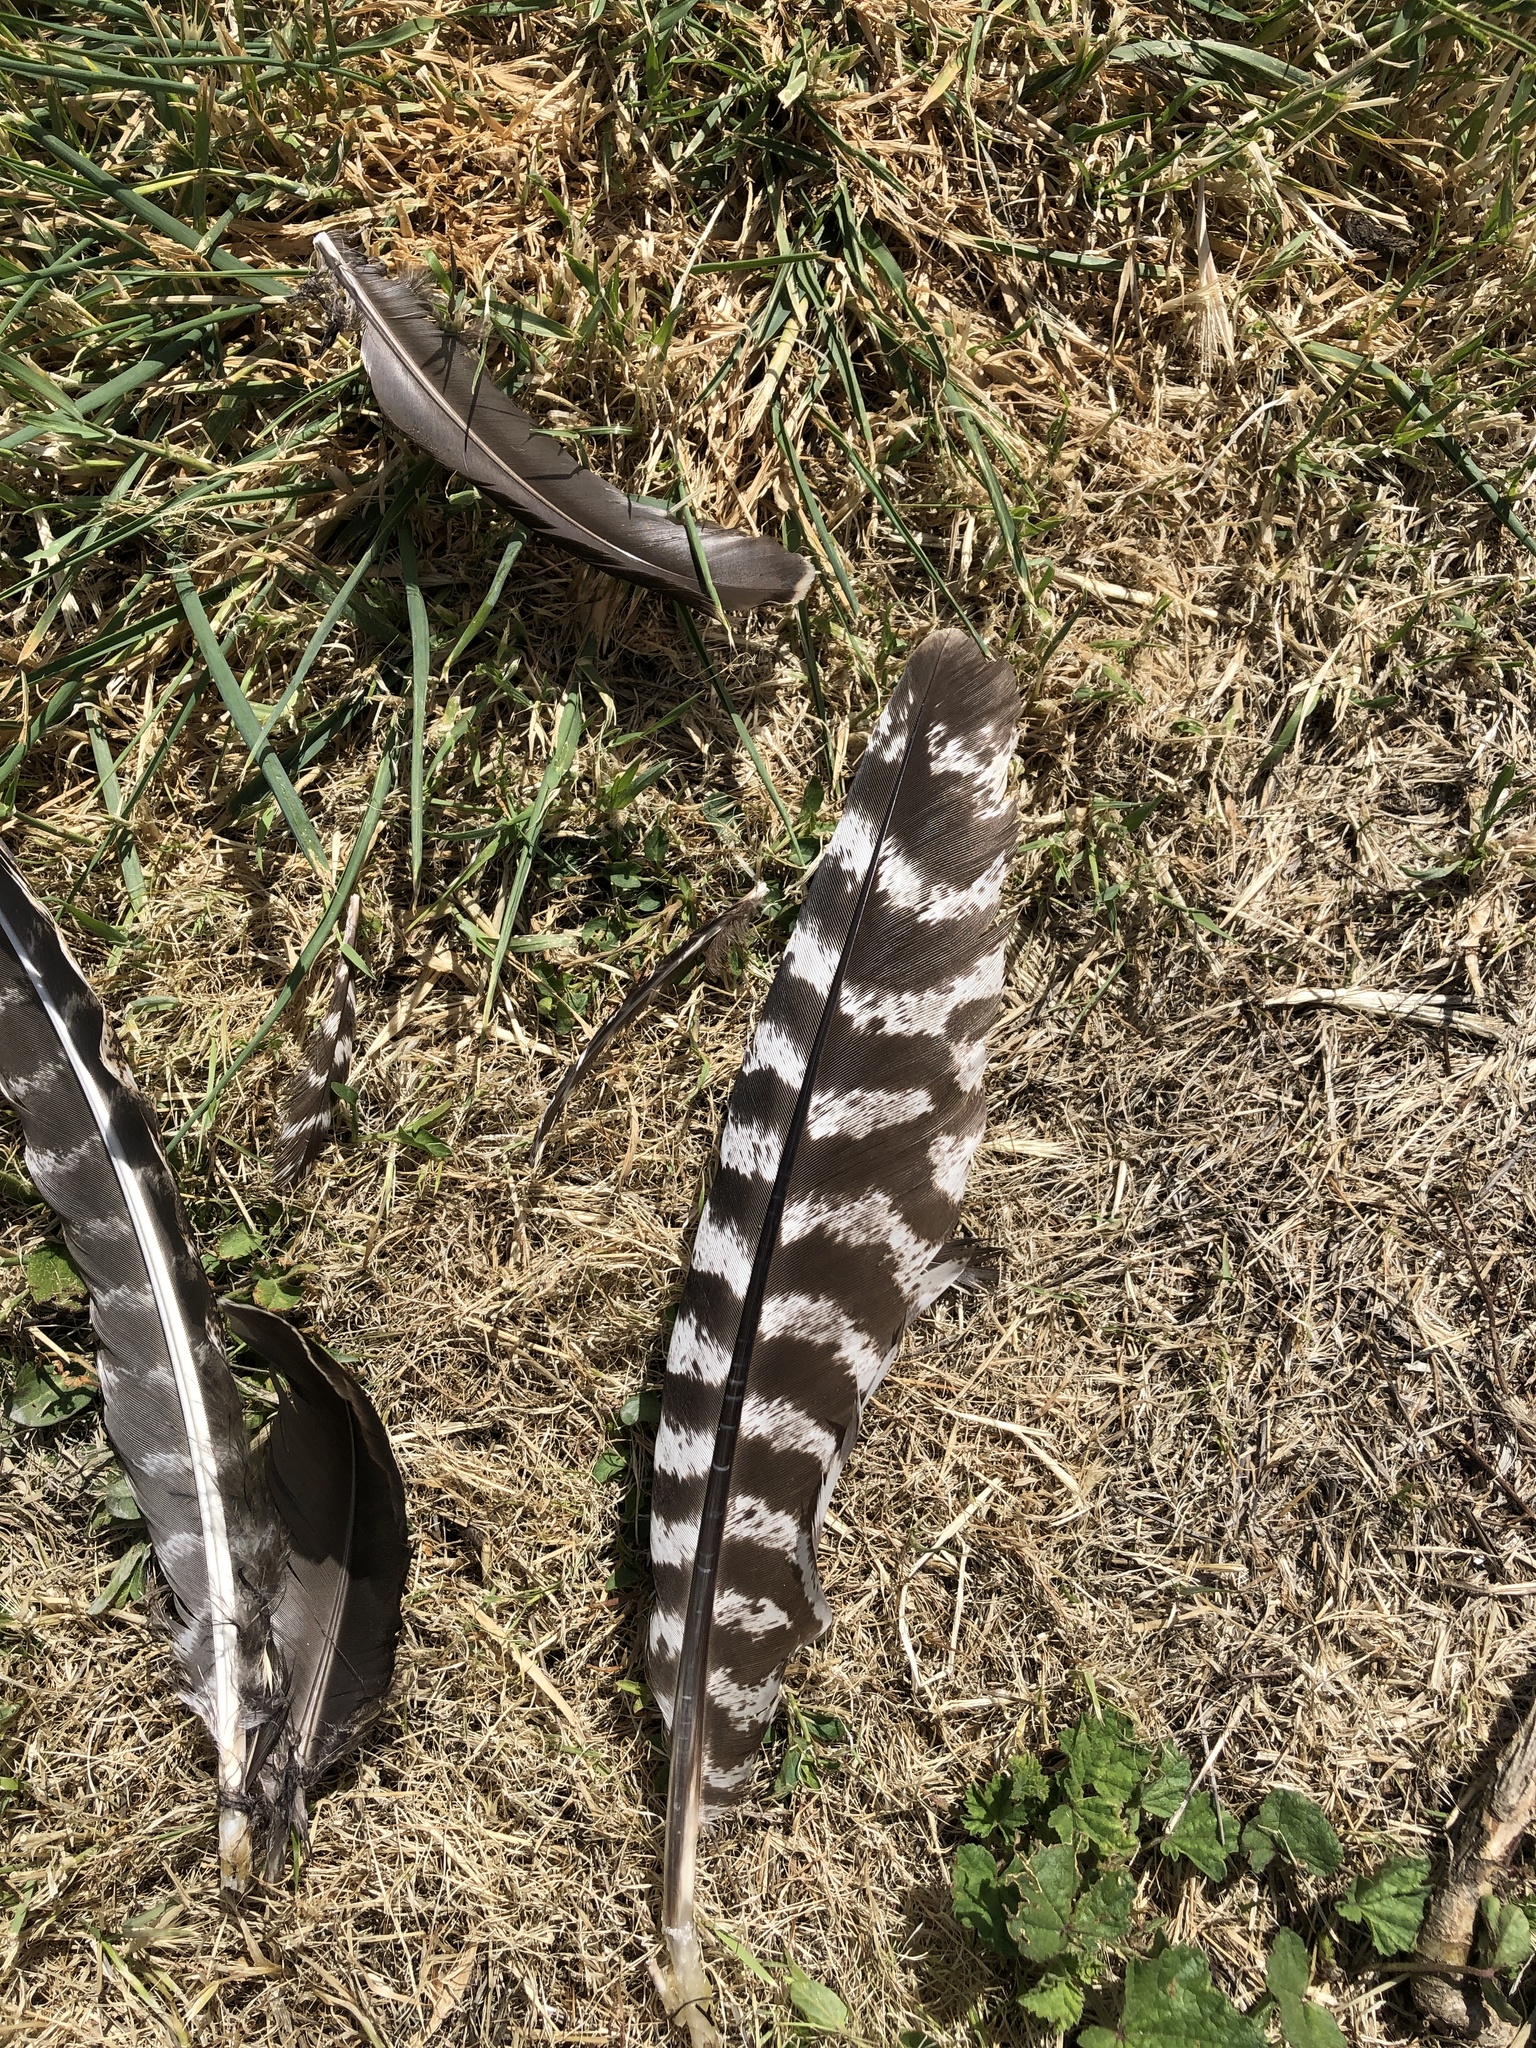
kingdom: Animalia
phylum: Chordata
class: Aves
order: Galliformes
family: Phasianidae
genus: Meleagris
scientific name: Meleagris gallopavo
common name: Wild turkey
